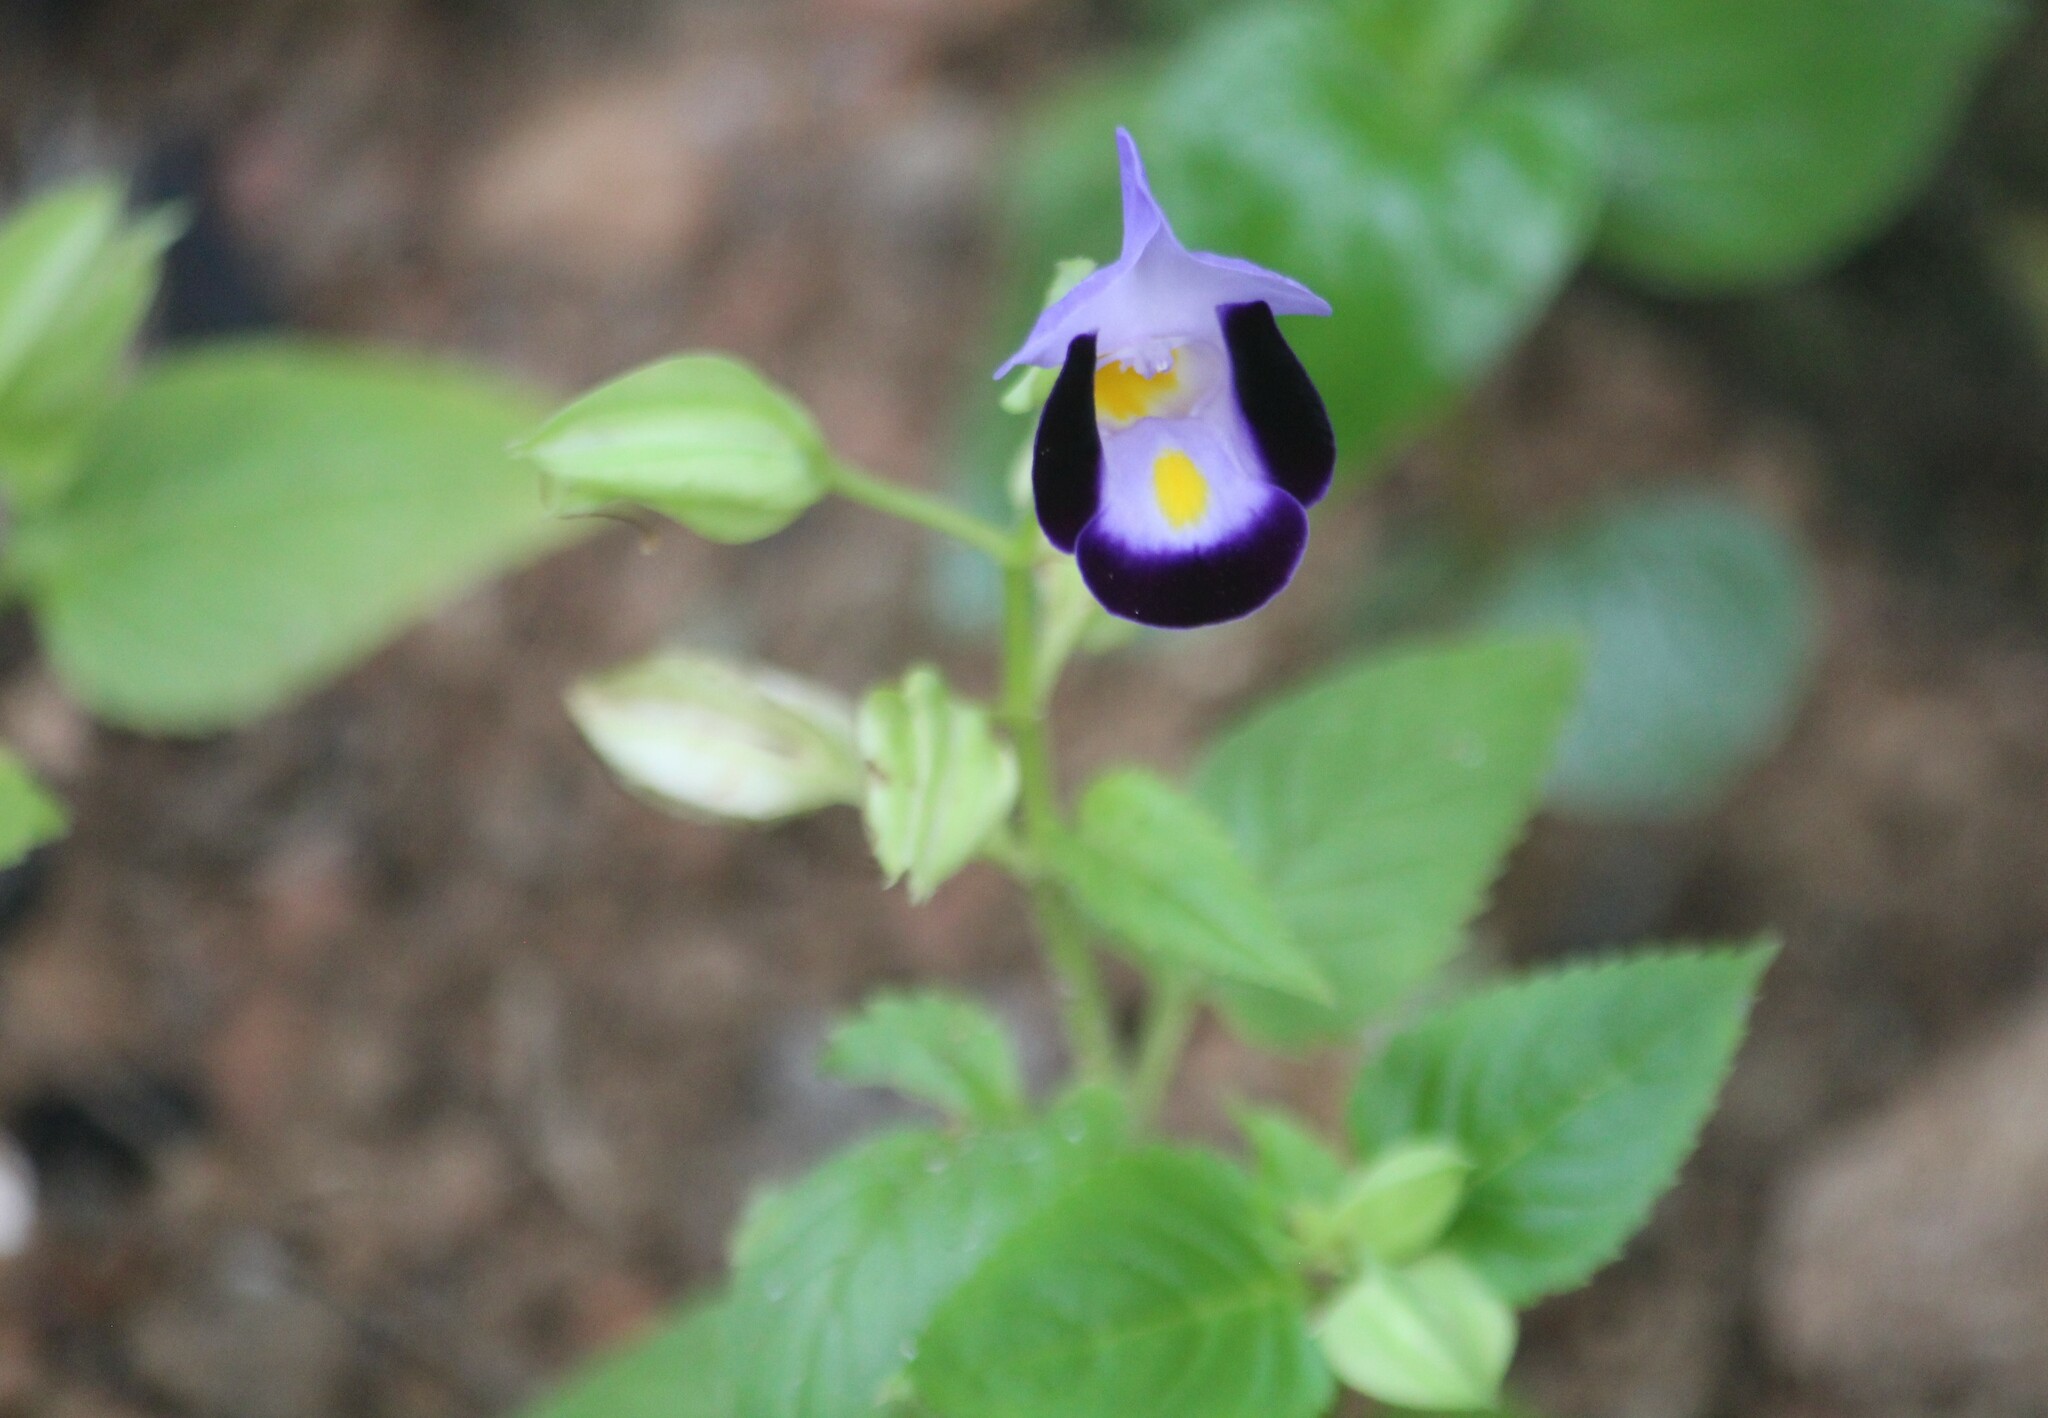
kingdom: Plantae
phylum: Tracheophyta
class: Magnoliopsida
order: Lamiales
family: Linderniaceae
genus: Torenia
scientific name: Torenia fournieri
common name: Bluewings
